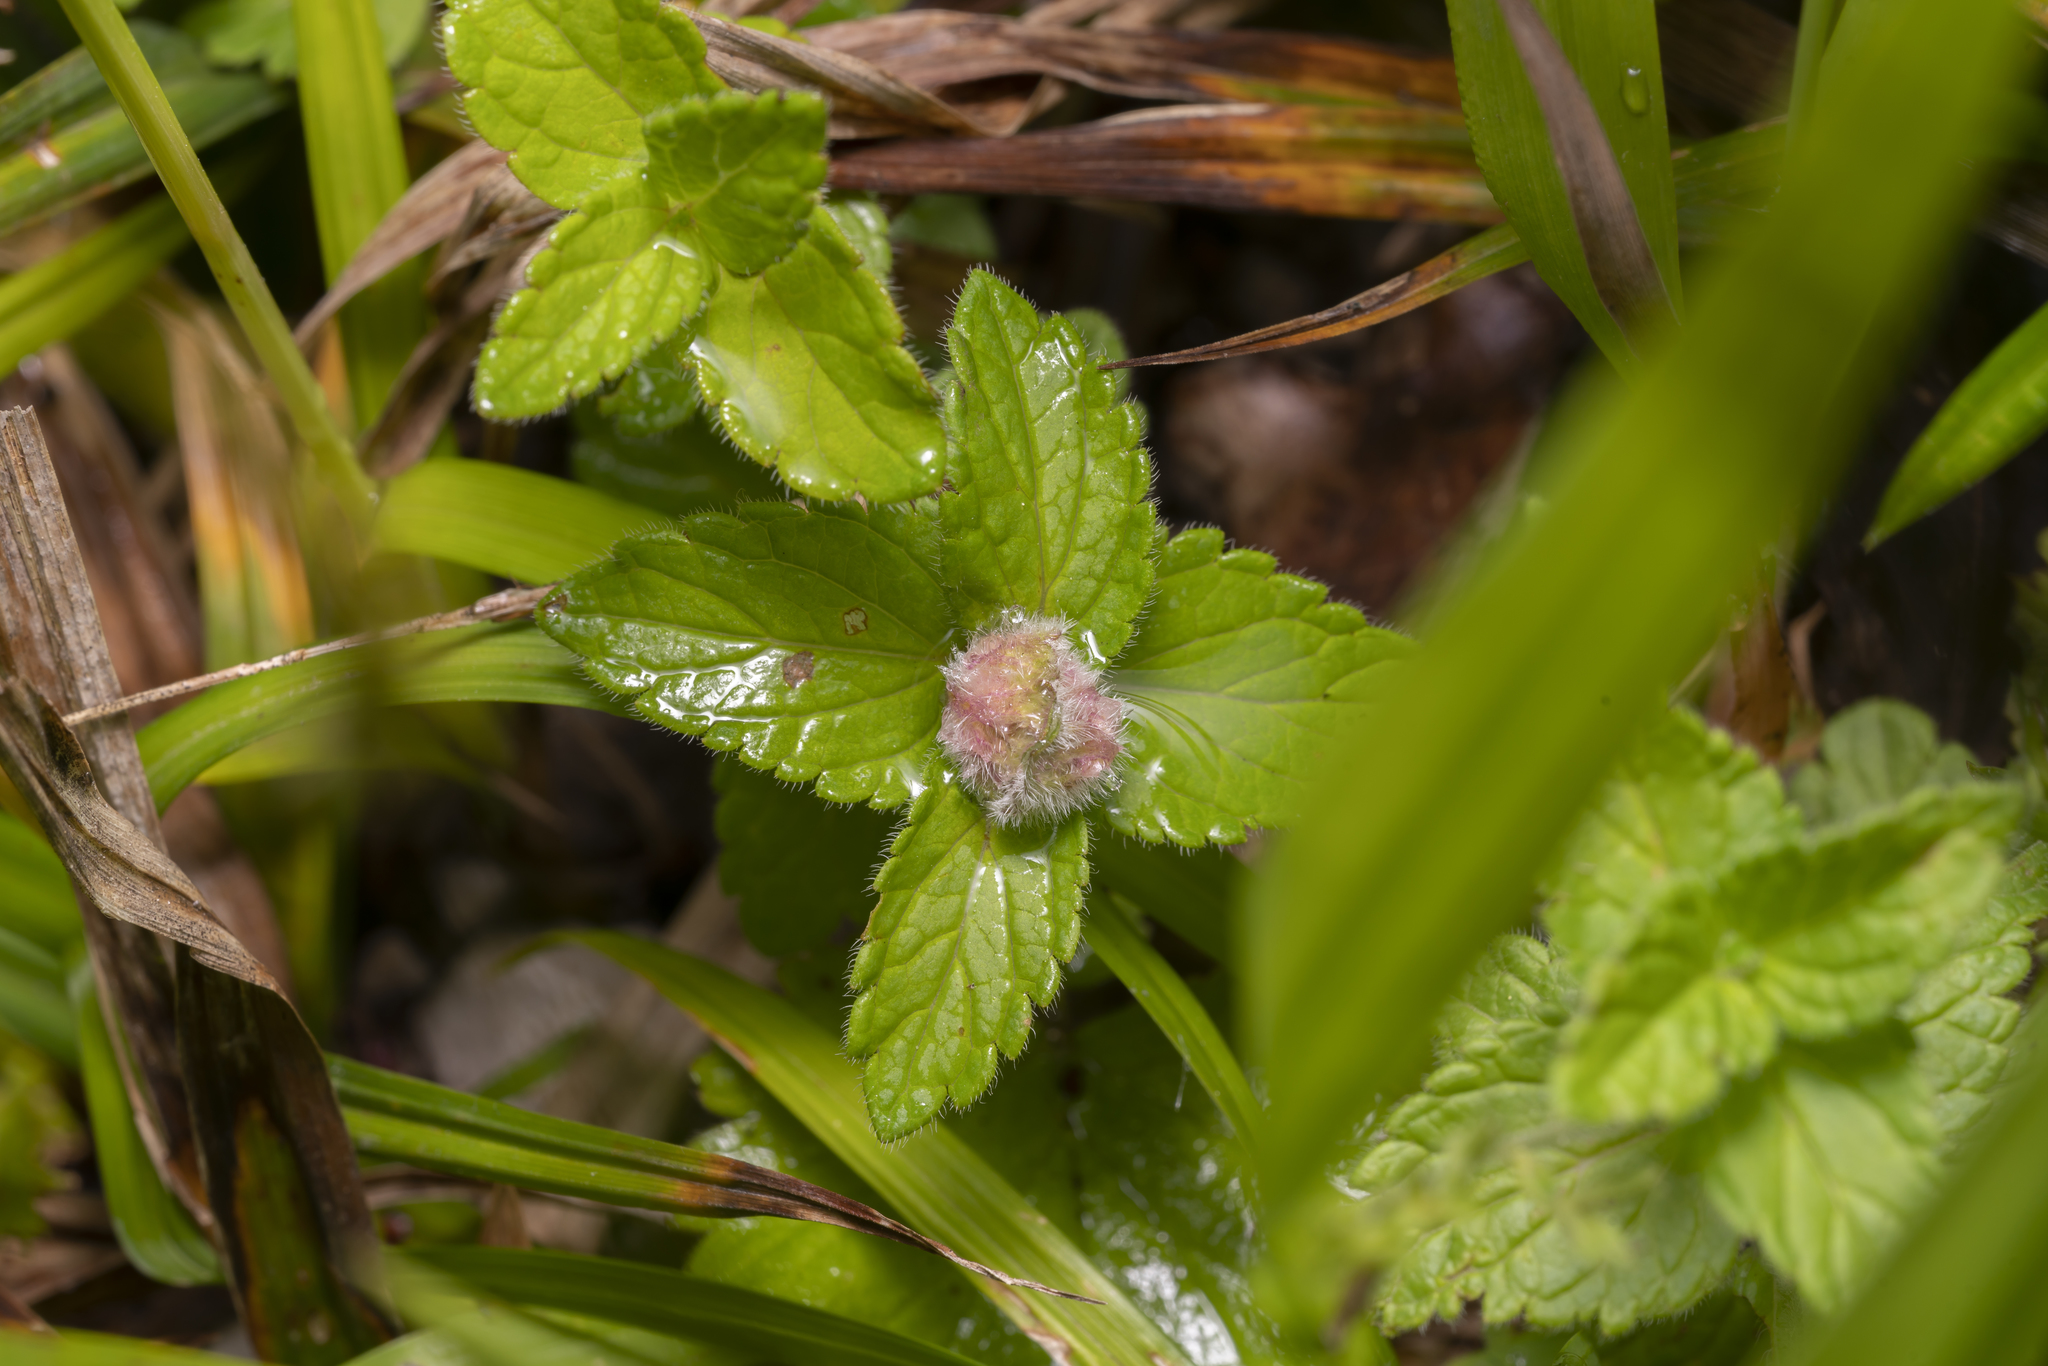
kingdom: Animalia
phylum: Arthropoda
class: Insecta
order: Diptera
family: Cecidomyiidae
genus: Jaapiella
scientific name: Jaapiella veronicae
